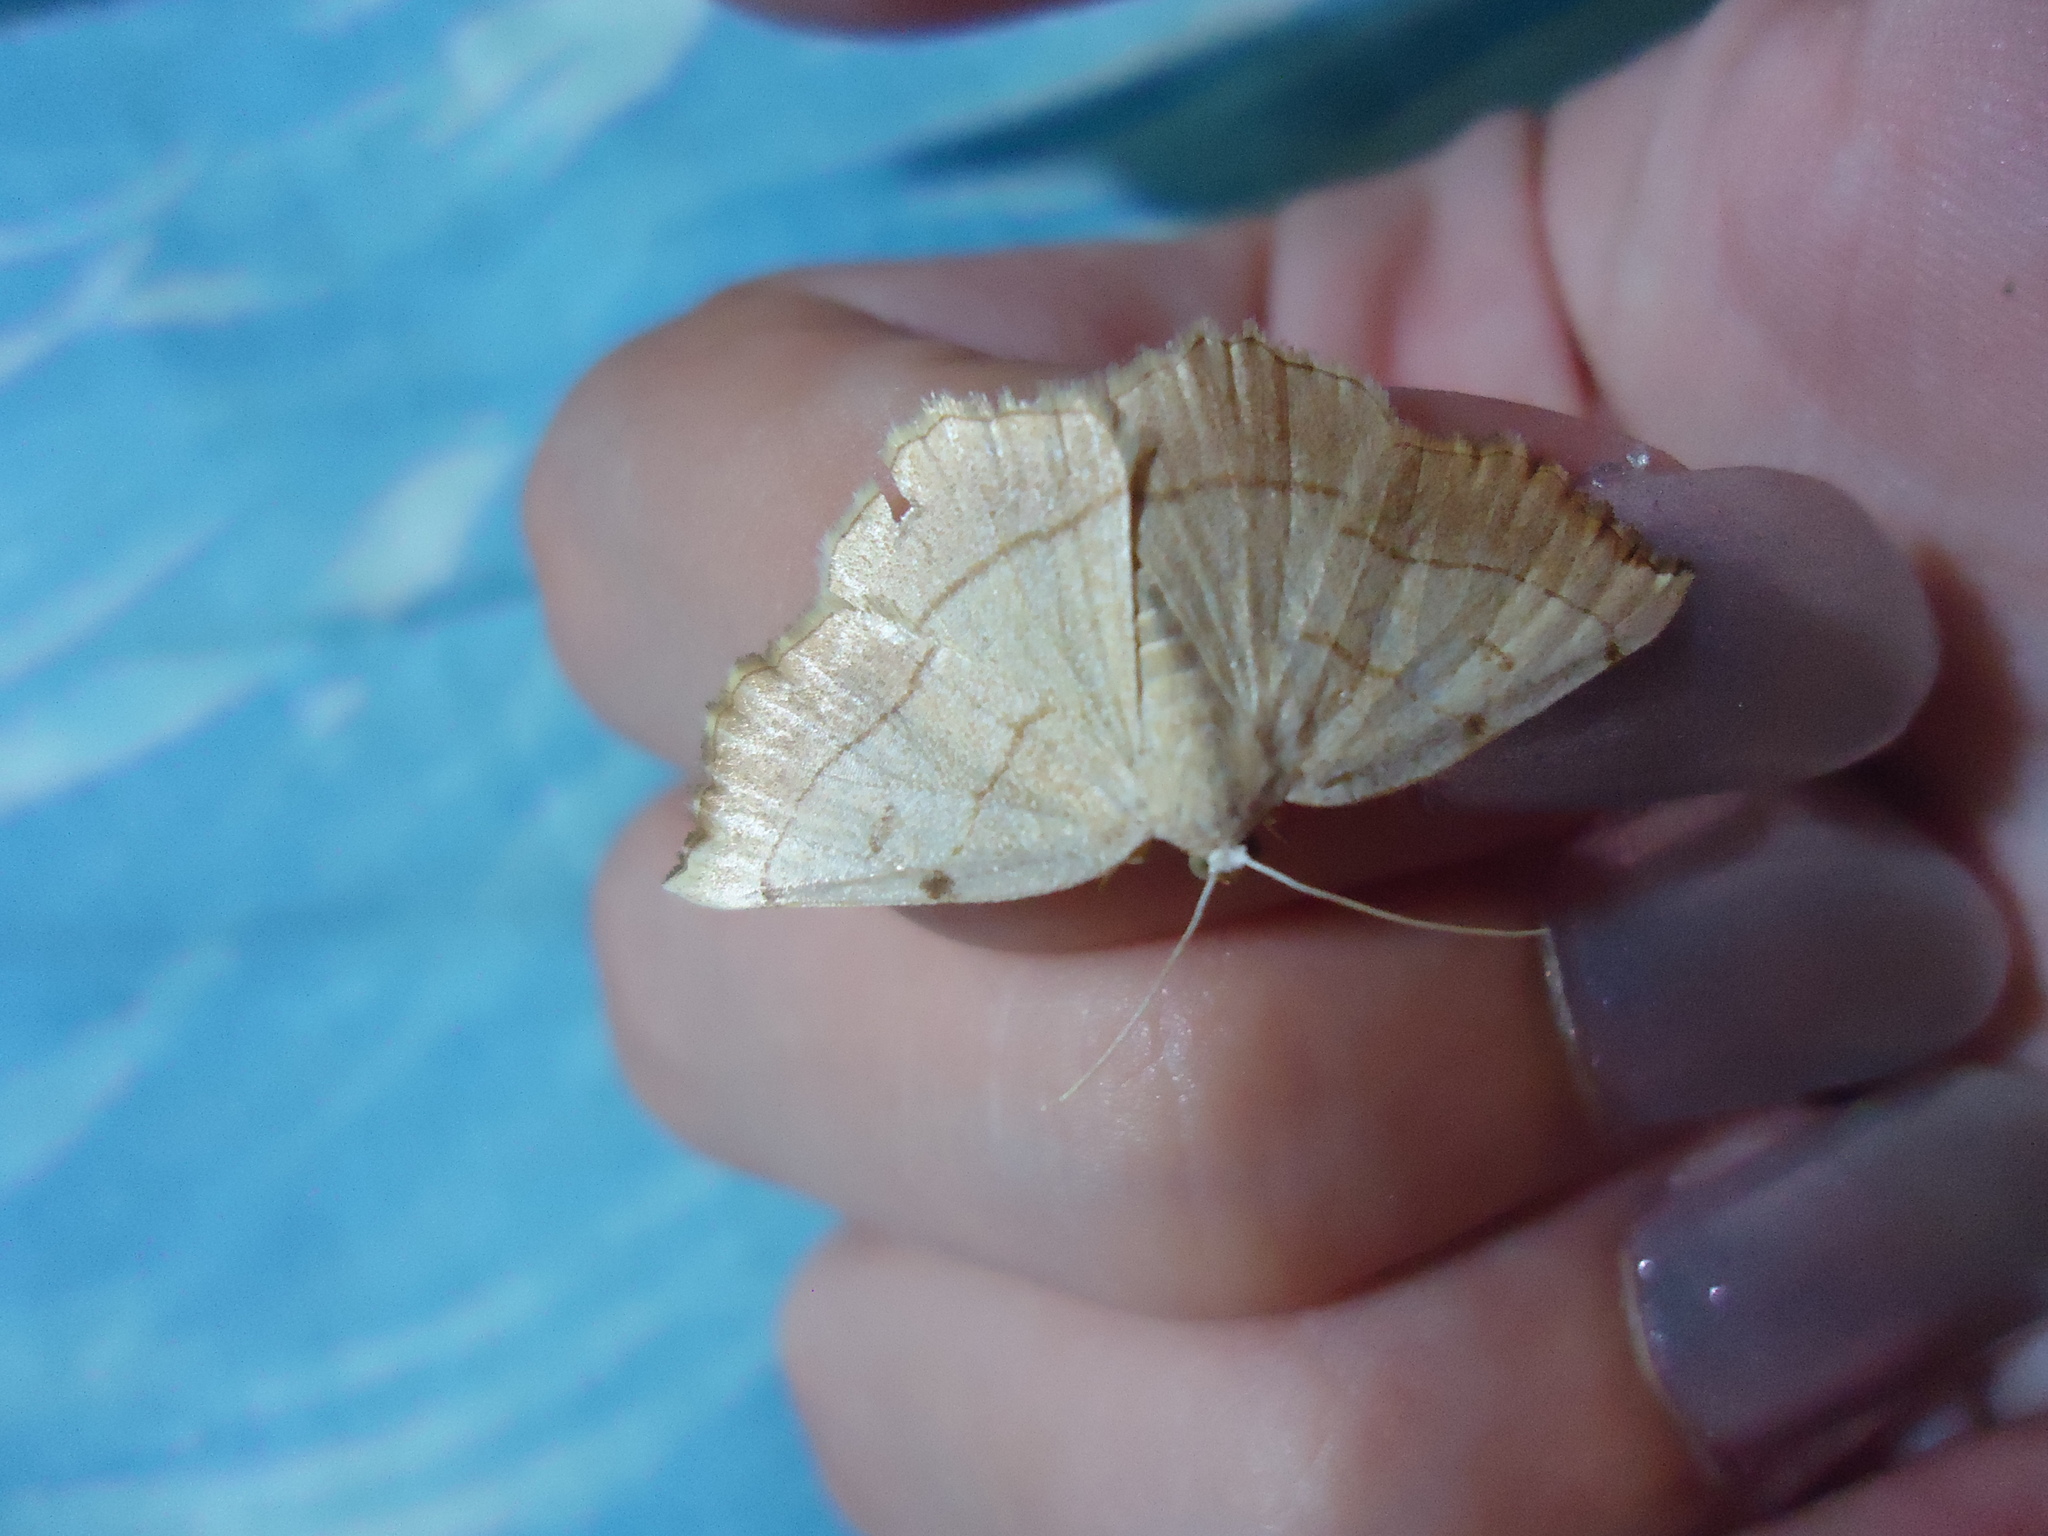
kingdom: Animalia
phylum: Arthropoda
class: Insecta
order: Lepidoptera
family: Geometridae
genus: Eilicrinia
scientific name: Eilicrinia trinotata
